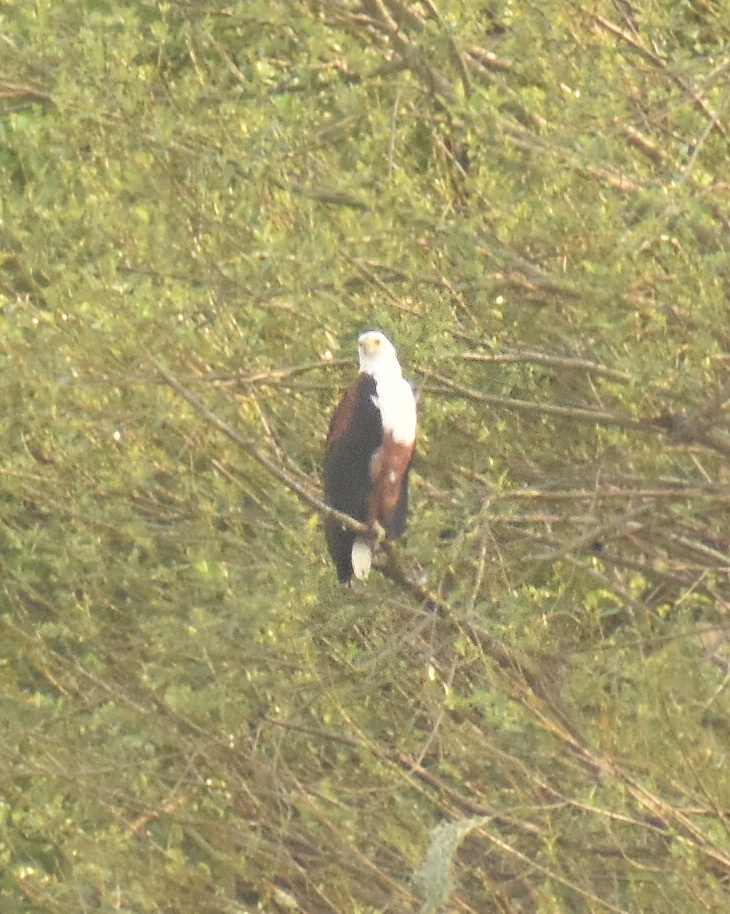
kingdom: Animalia
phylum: Chordata
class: Aves
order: Accipitriformes
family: Accipitridae
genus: Haliaeetus
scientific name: Haliaeetus vocifer
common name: African fish eagle
